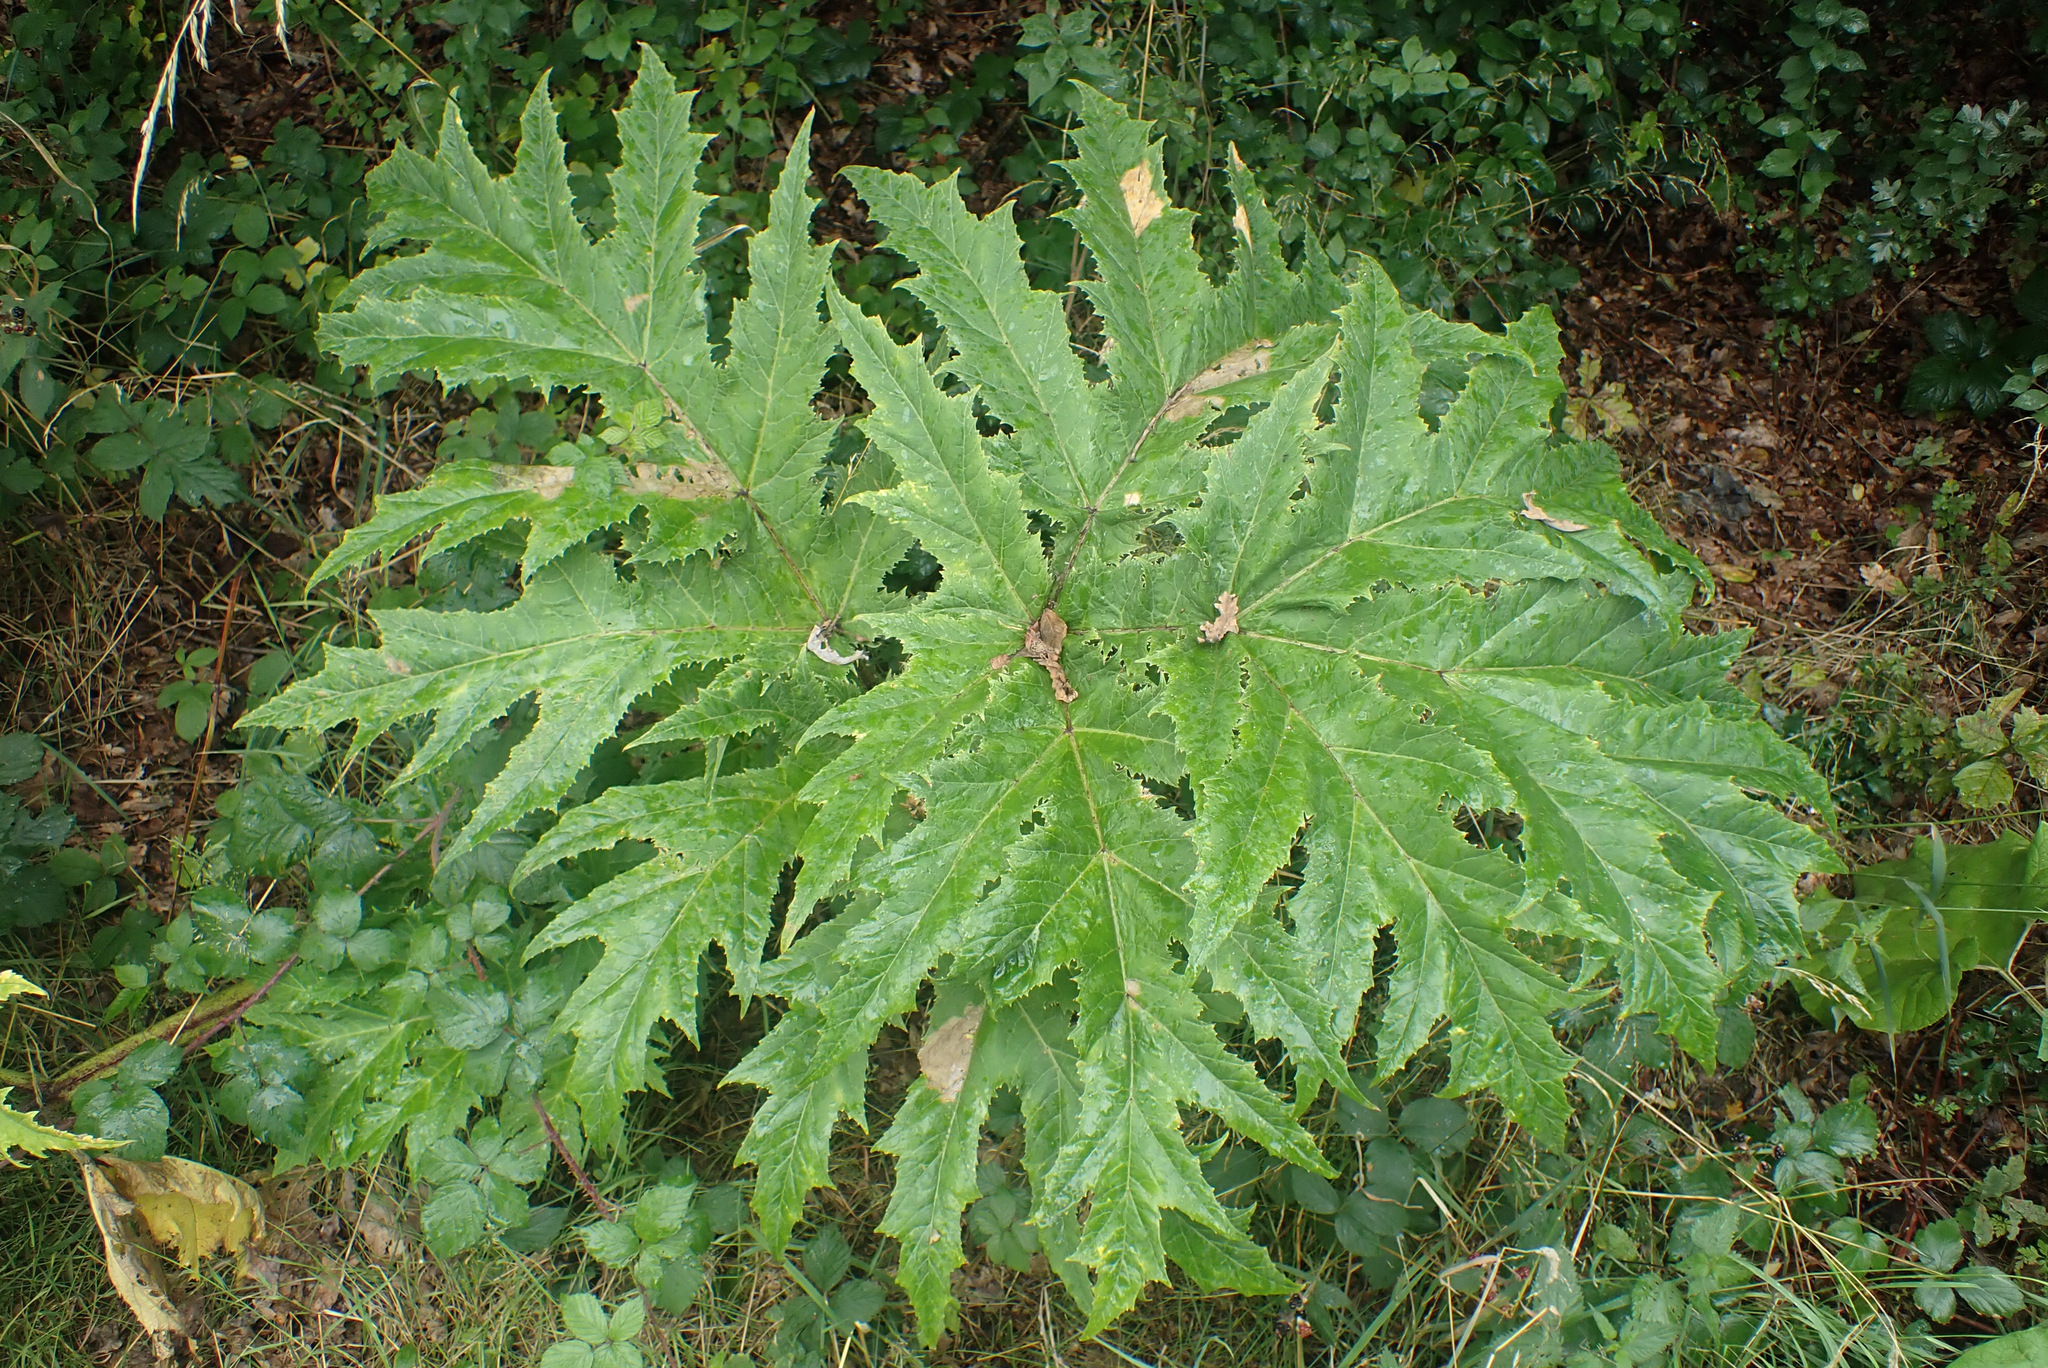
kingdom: Plantae
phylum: Tracheophyta
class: Magnoliopsida
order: Apiales
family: Apiaceae
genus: Heracleum
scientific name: Heracleum mantegazzianum
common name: Giant hogweed
